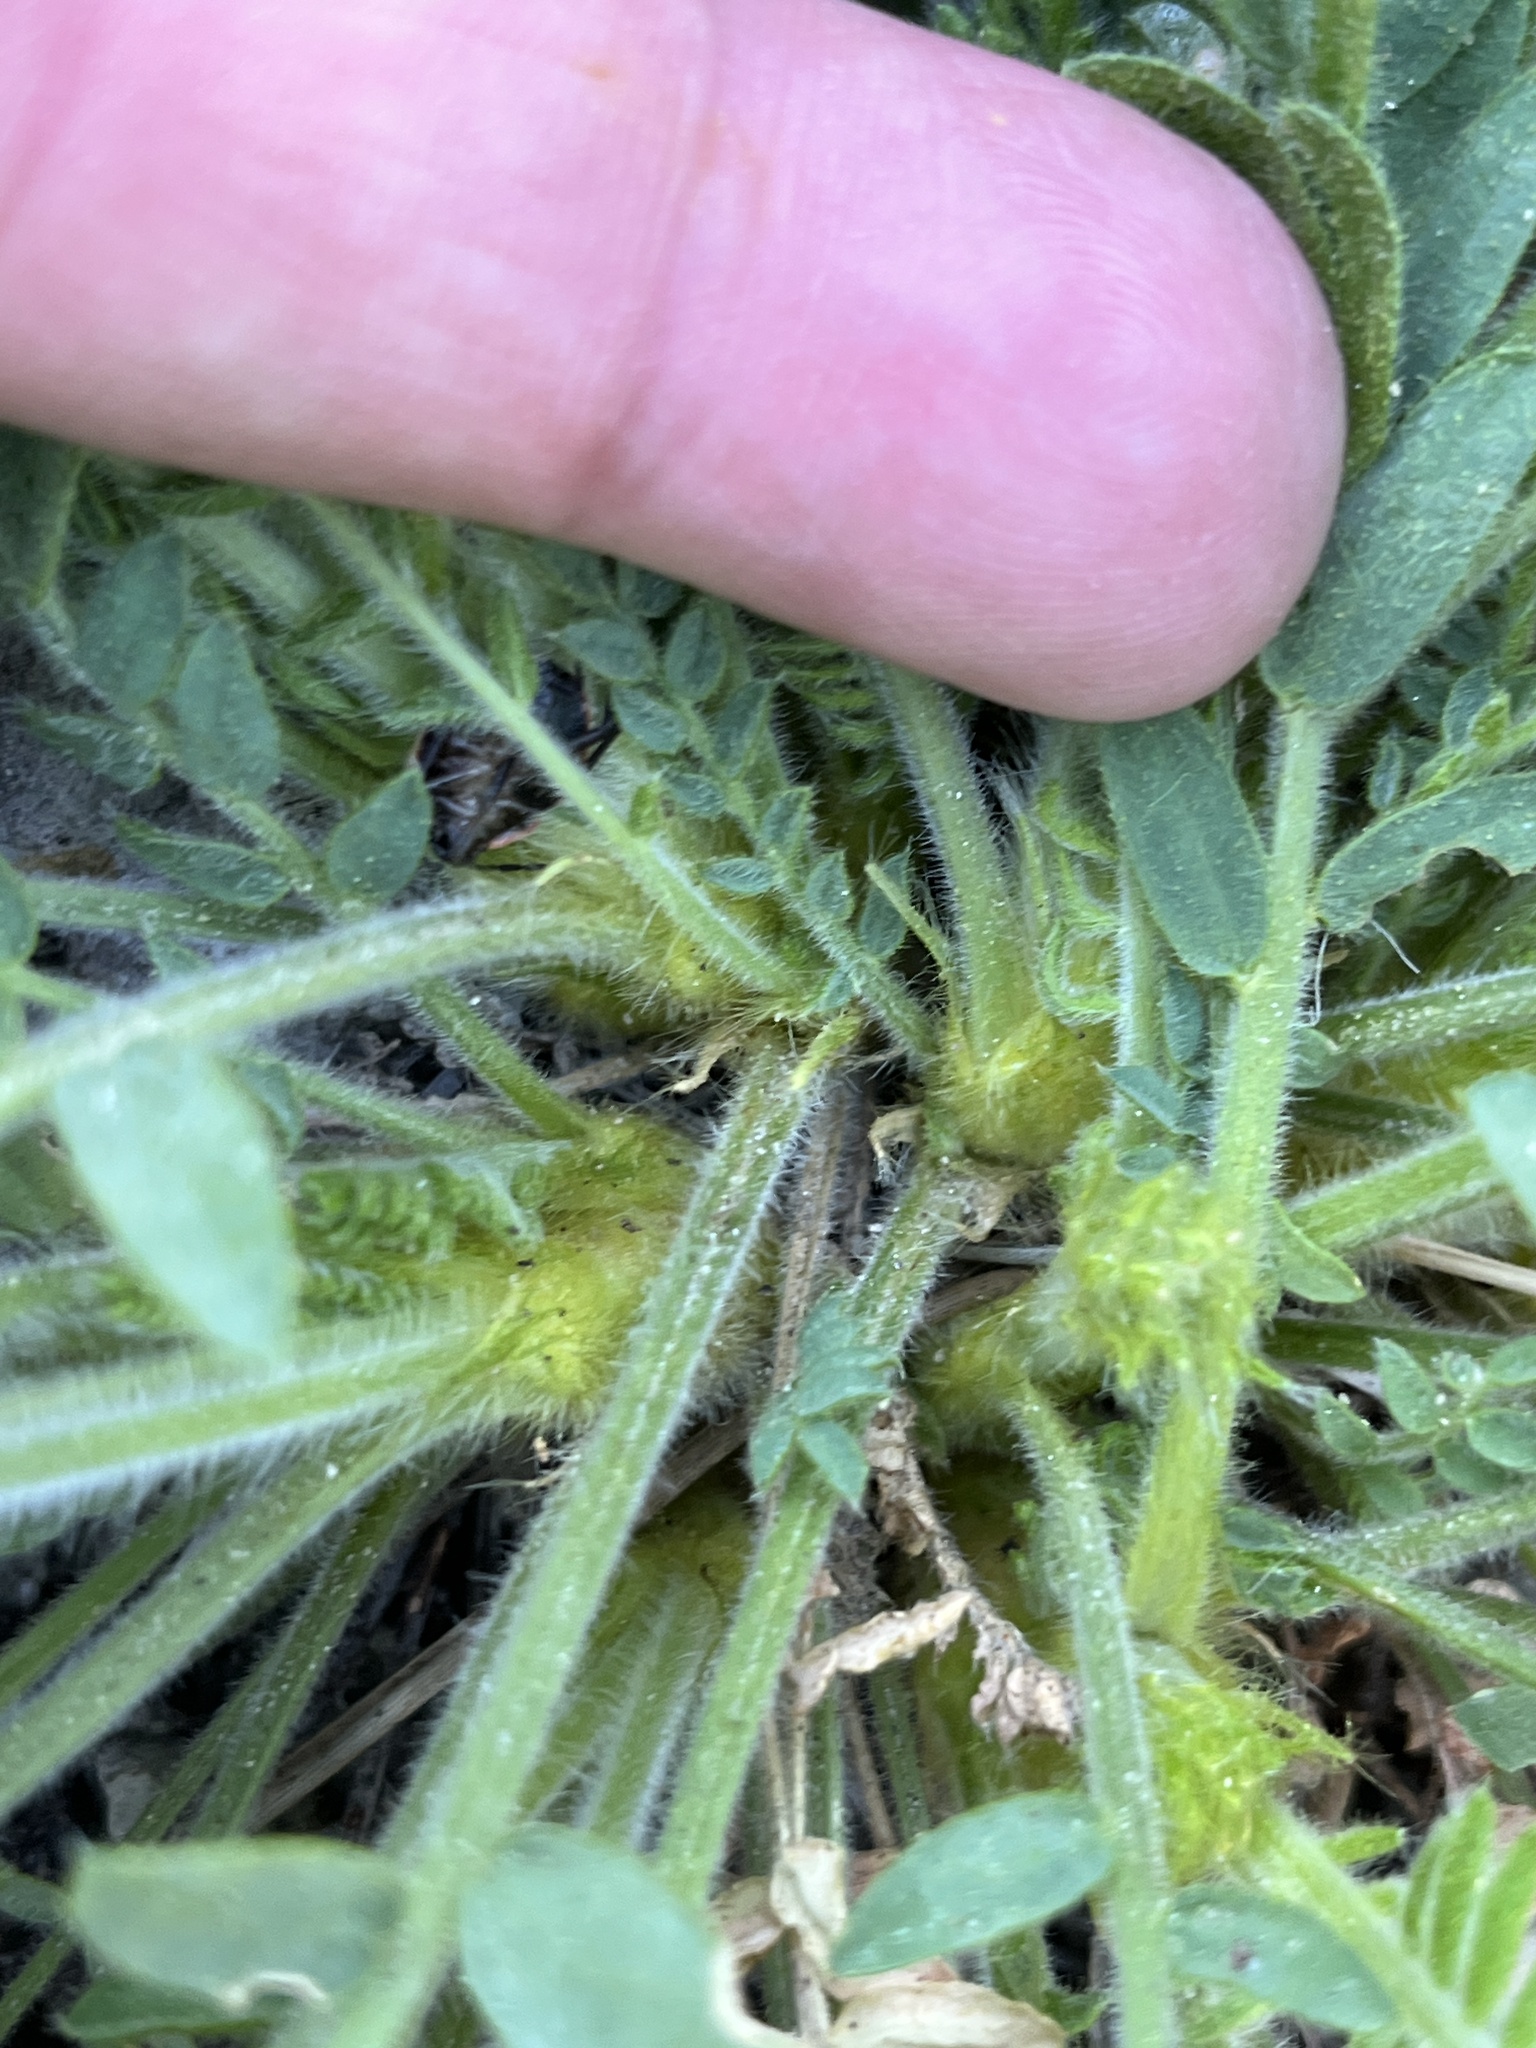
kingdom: Plantae
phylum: Tracheophyta
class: Magnoliopsida
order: Fabales
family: Fabaceae
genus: Oxytropis
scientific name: Oxytropis borealis
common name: Boreal locoweed
